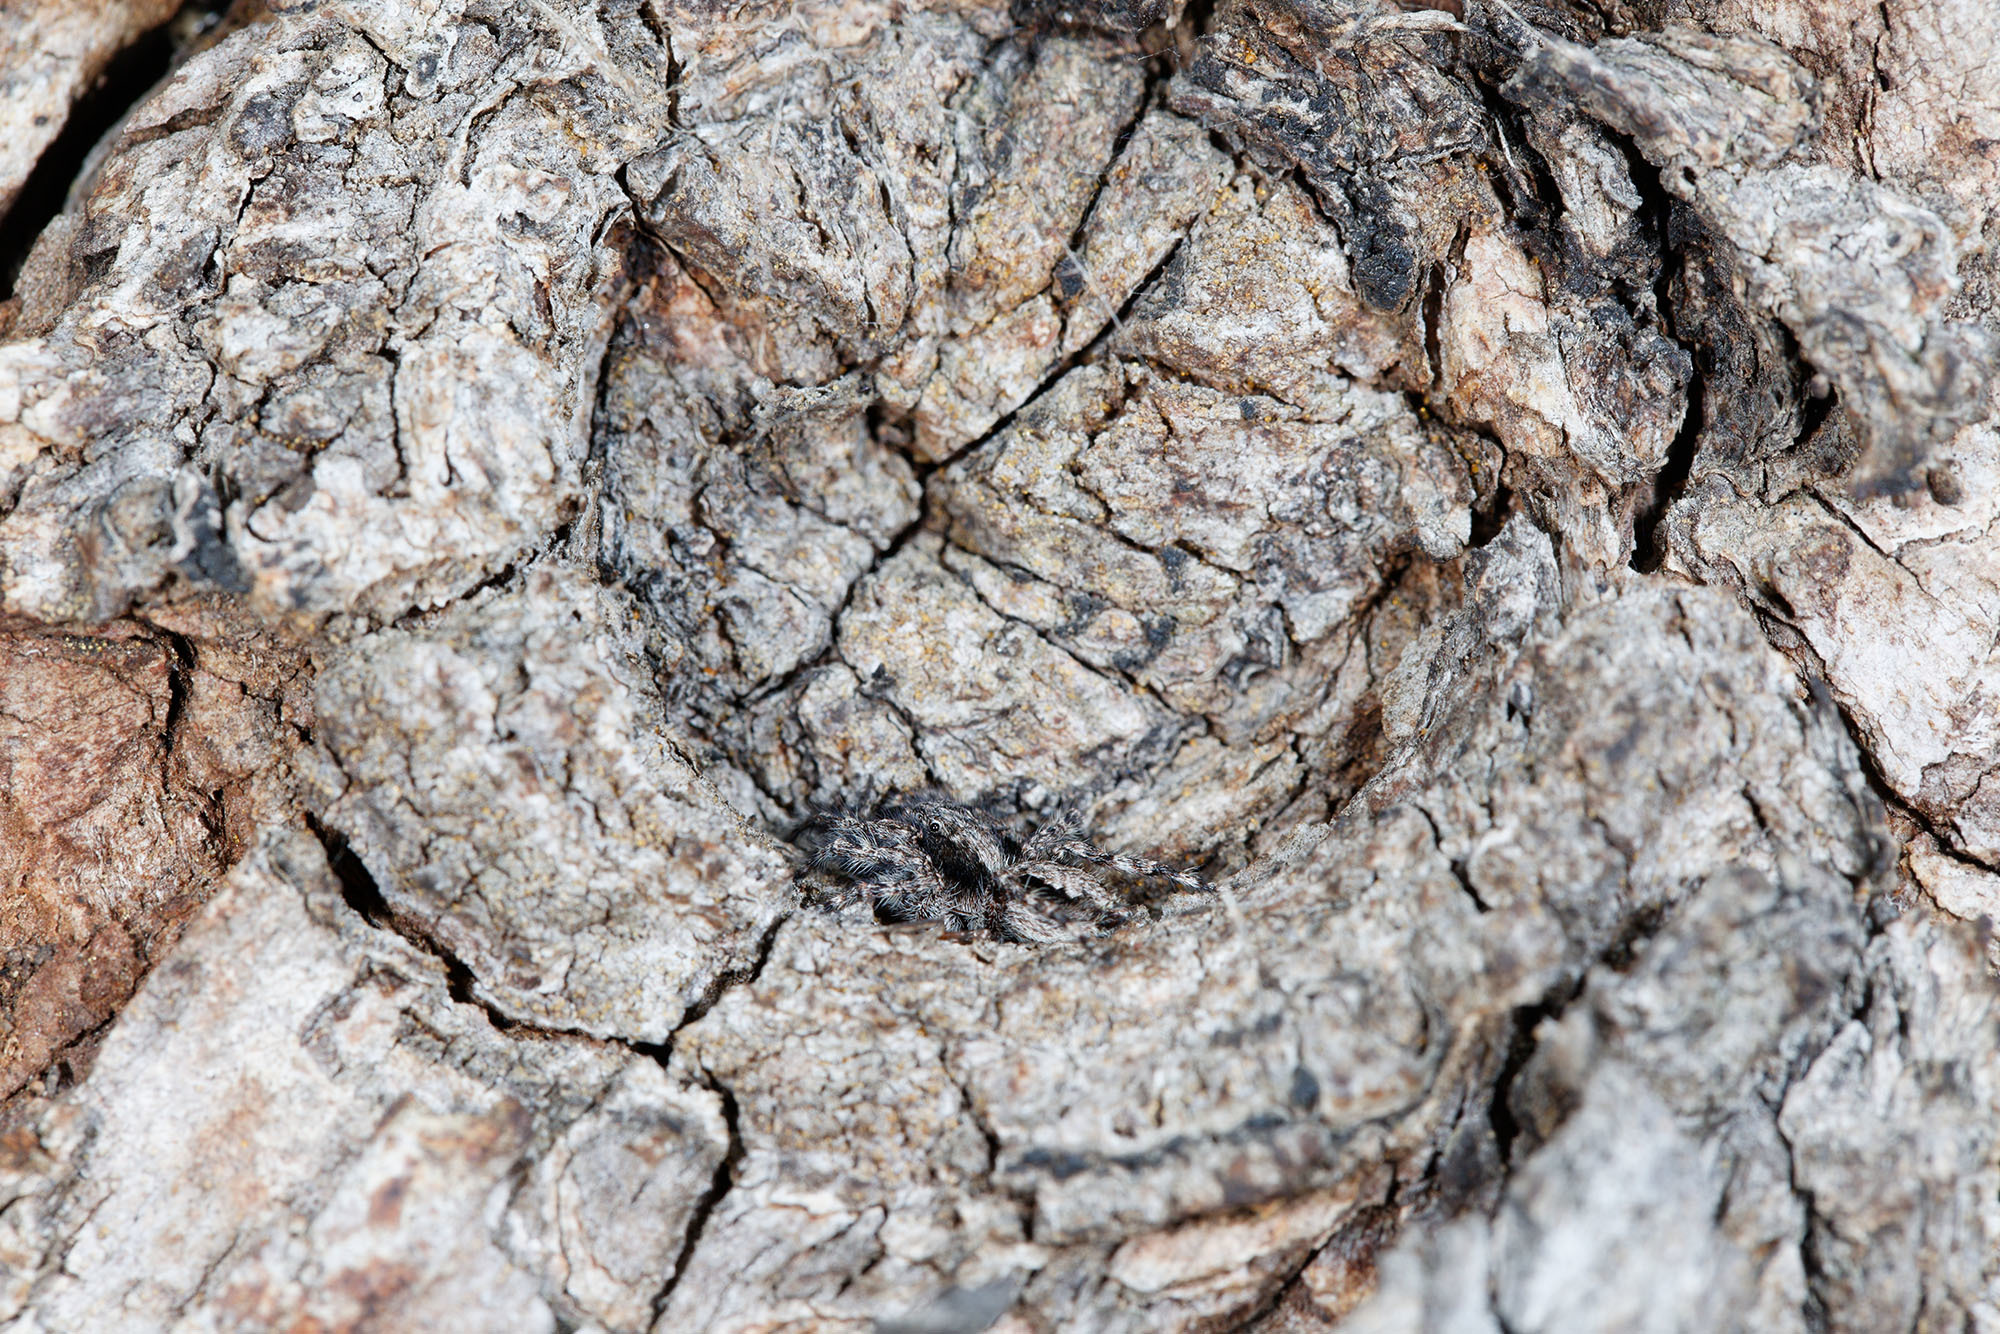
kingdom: Animalia
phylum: Arthropoda
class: Arachnida
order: Araneae
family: Salticidae
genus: Clynotis
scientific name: Clynotis severus
